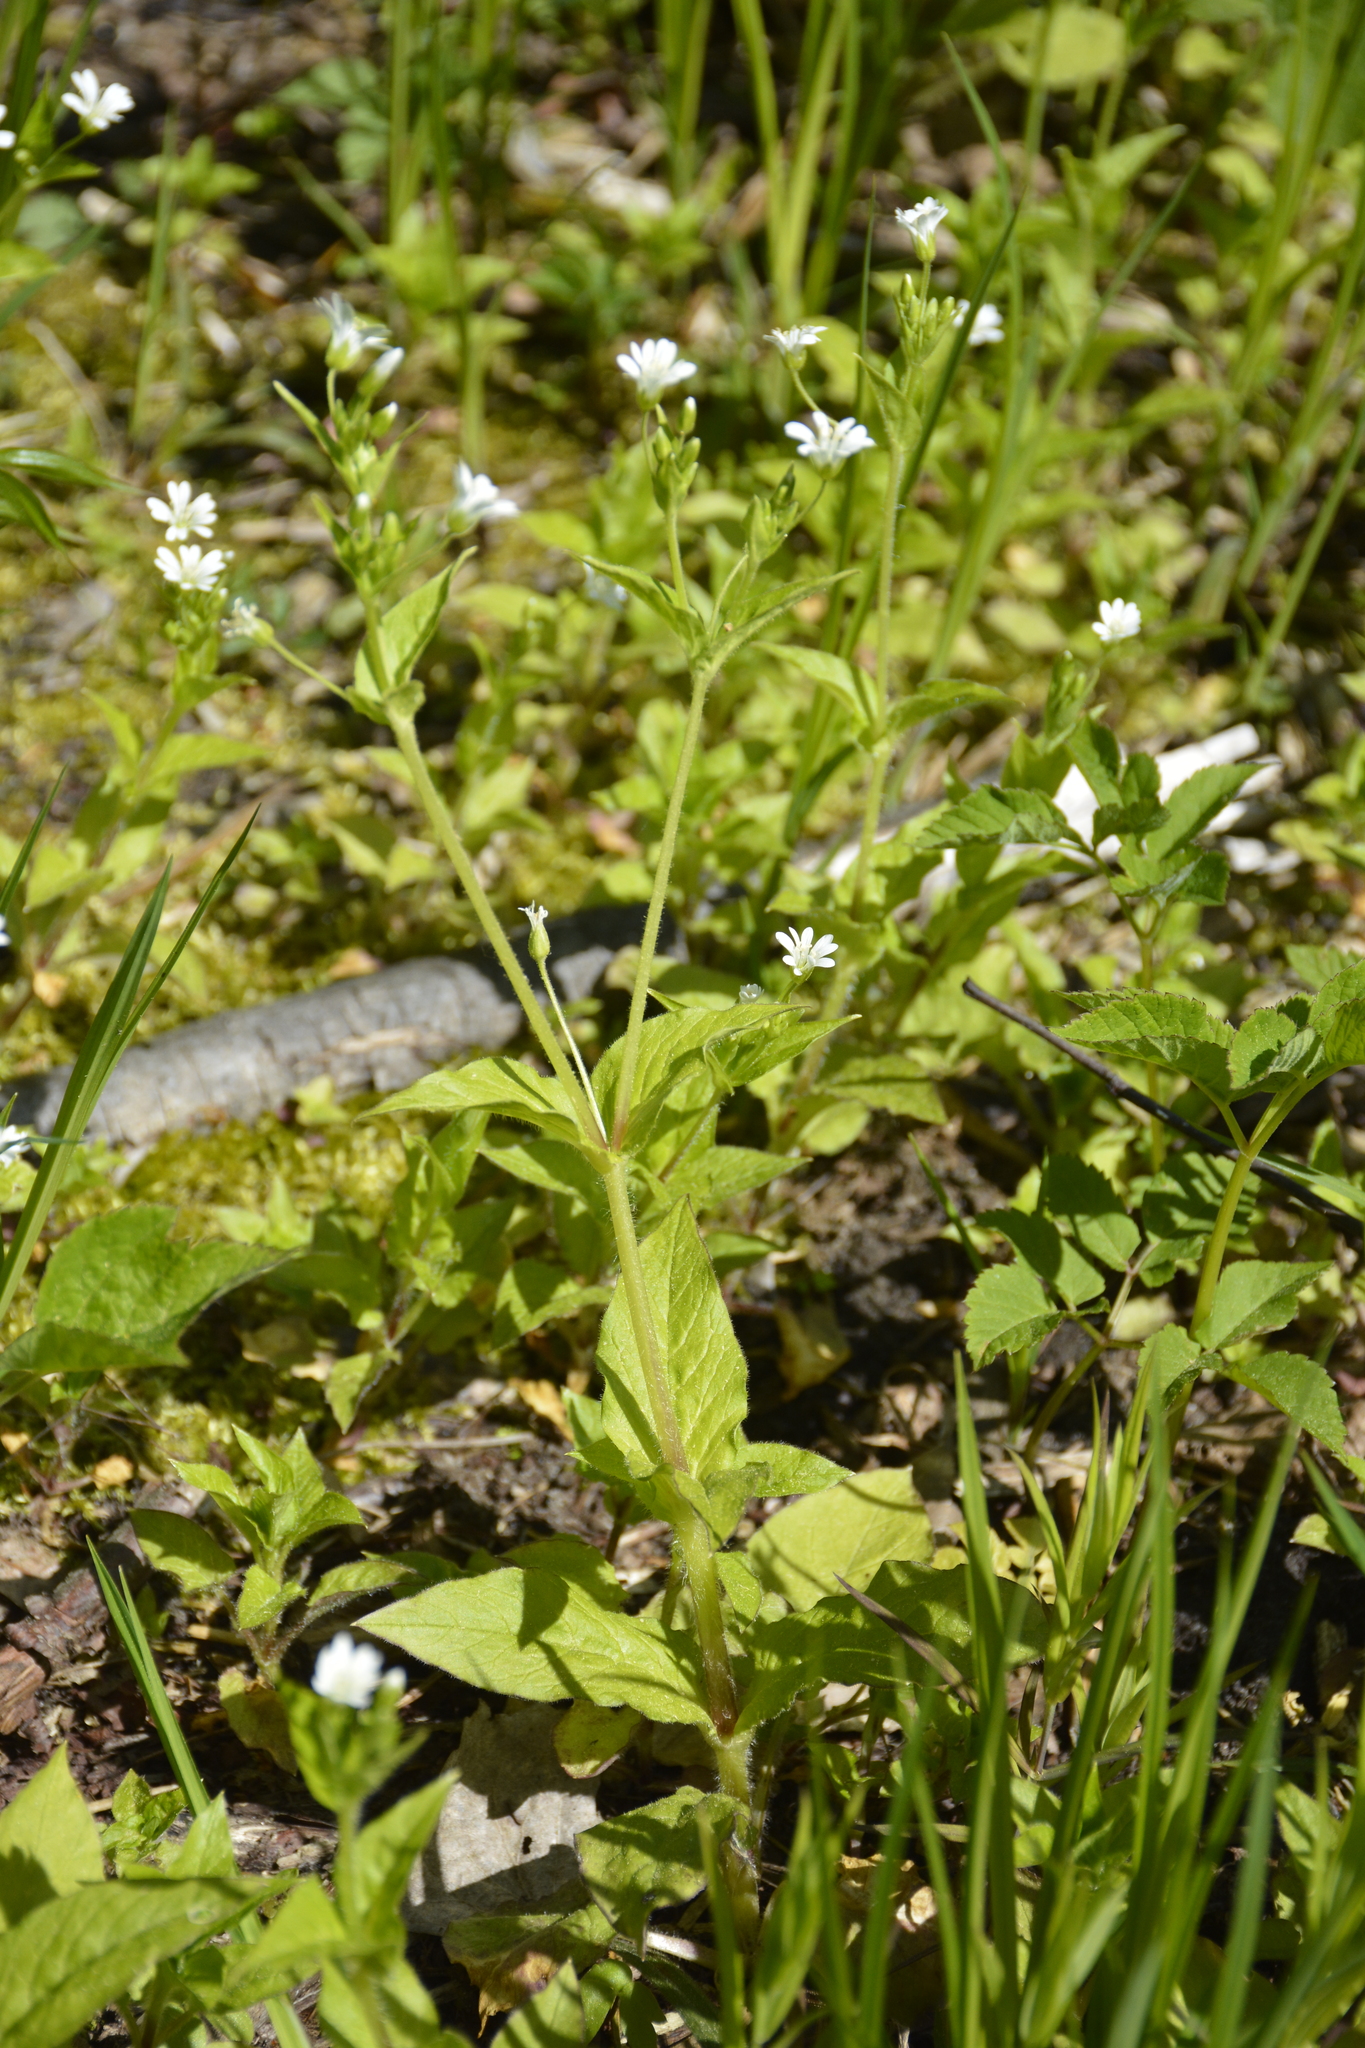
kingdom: Plantae
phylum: Tracheophyta
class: Magnoliopsida
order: Caryophyllales
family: Caryophyllaceae
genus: Stellaria
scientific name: Stellaria nemorum
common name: Wood stitchwort
